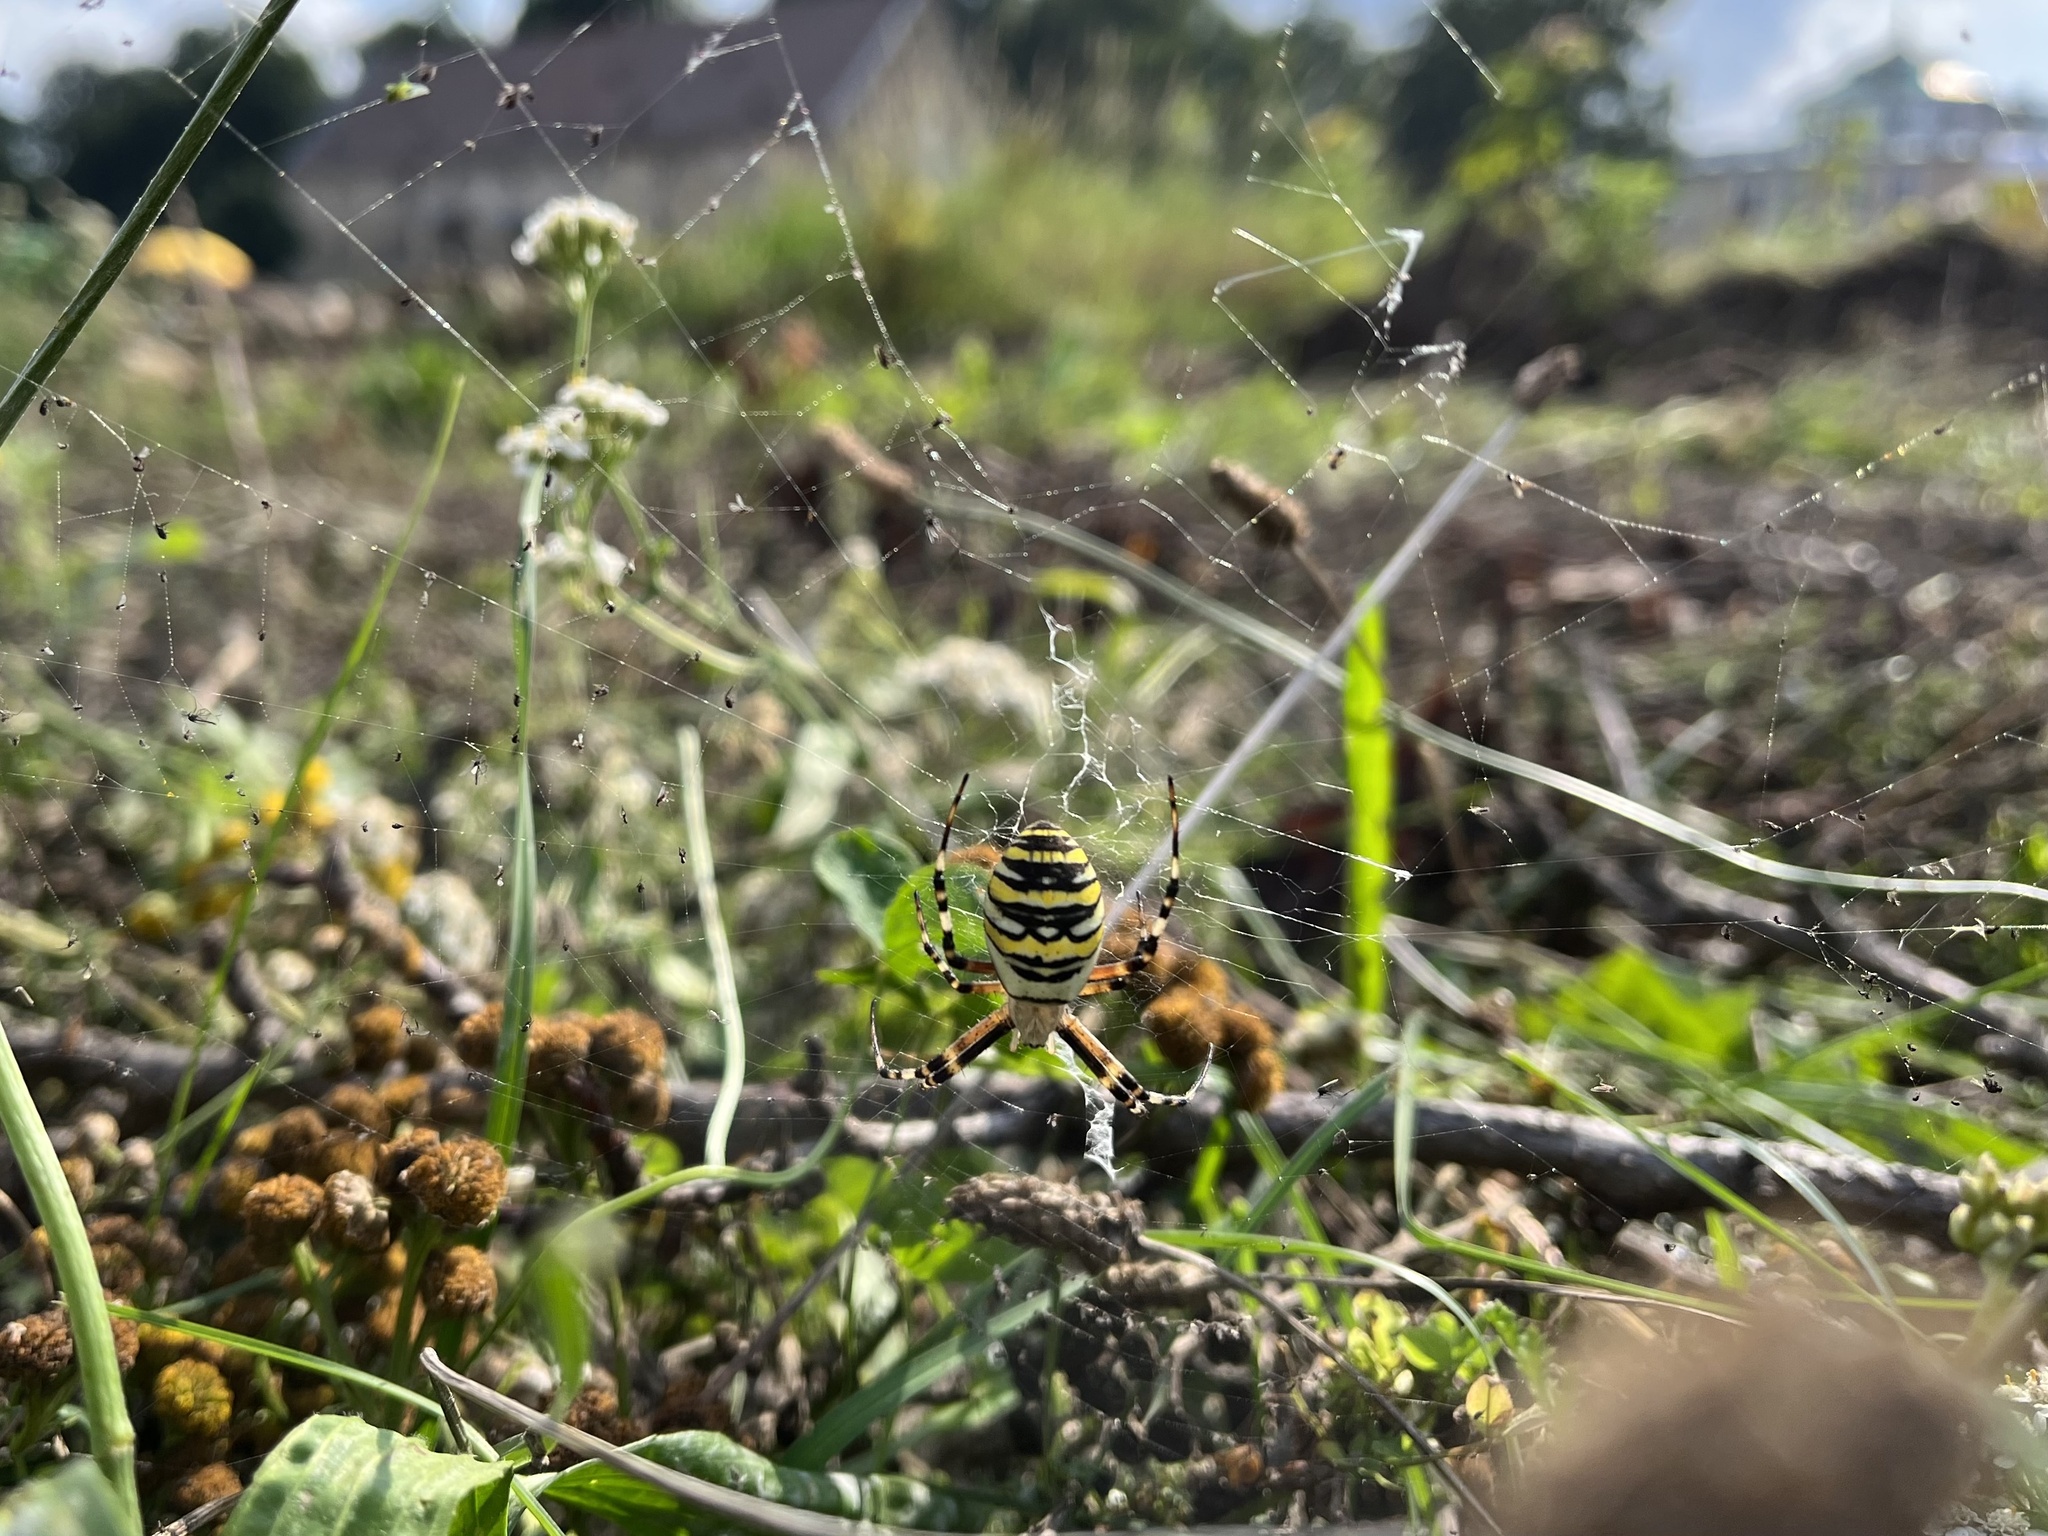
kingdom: Animalia
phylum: Arthropoda
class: Arachnida
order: Araneae
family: Araneidae
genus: Argiope
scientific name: Argiope bruennichi
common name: Wasp spider
